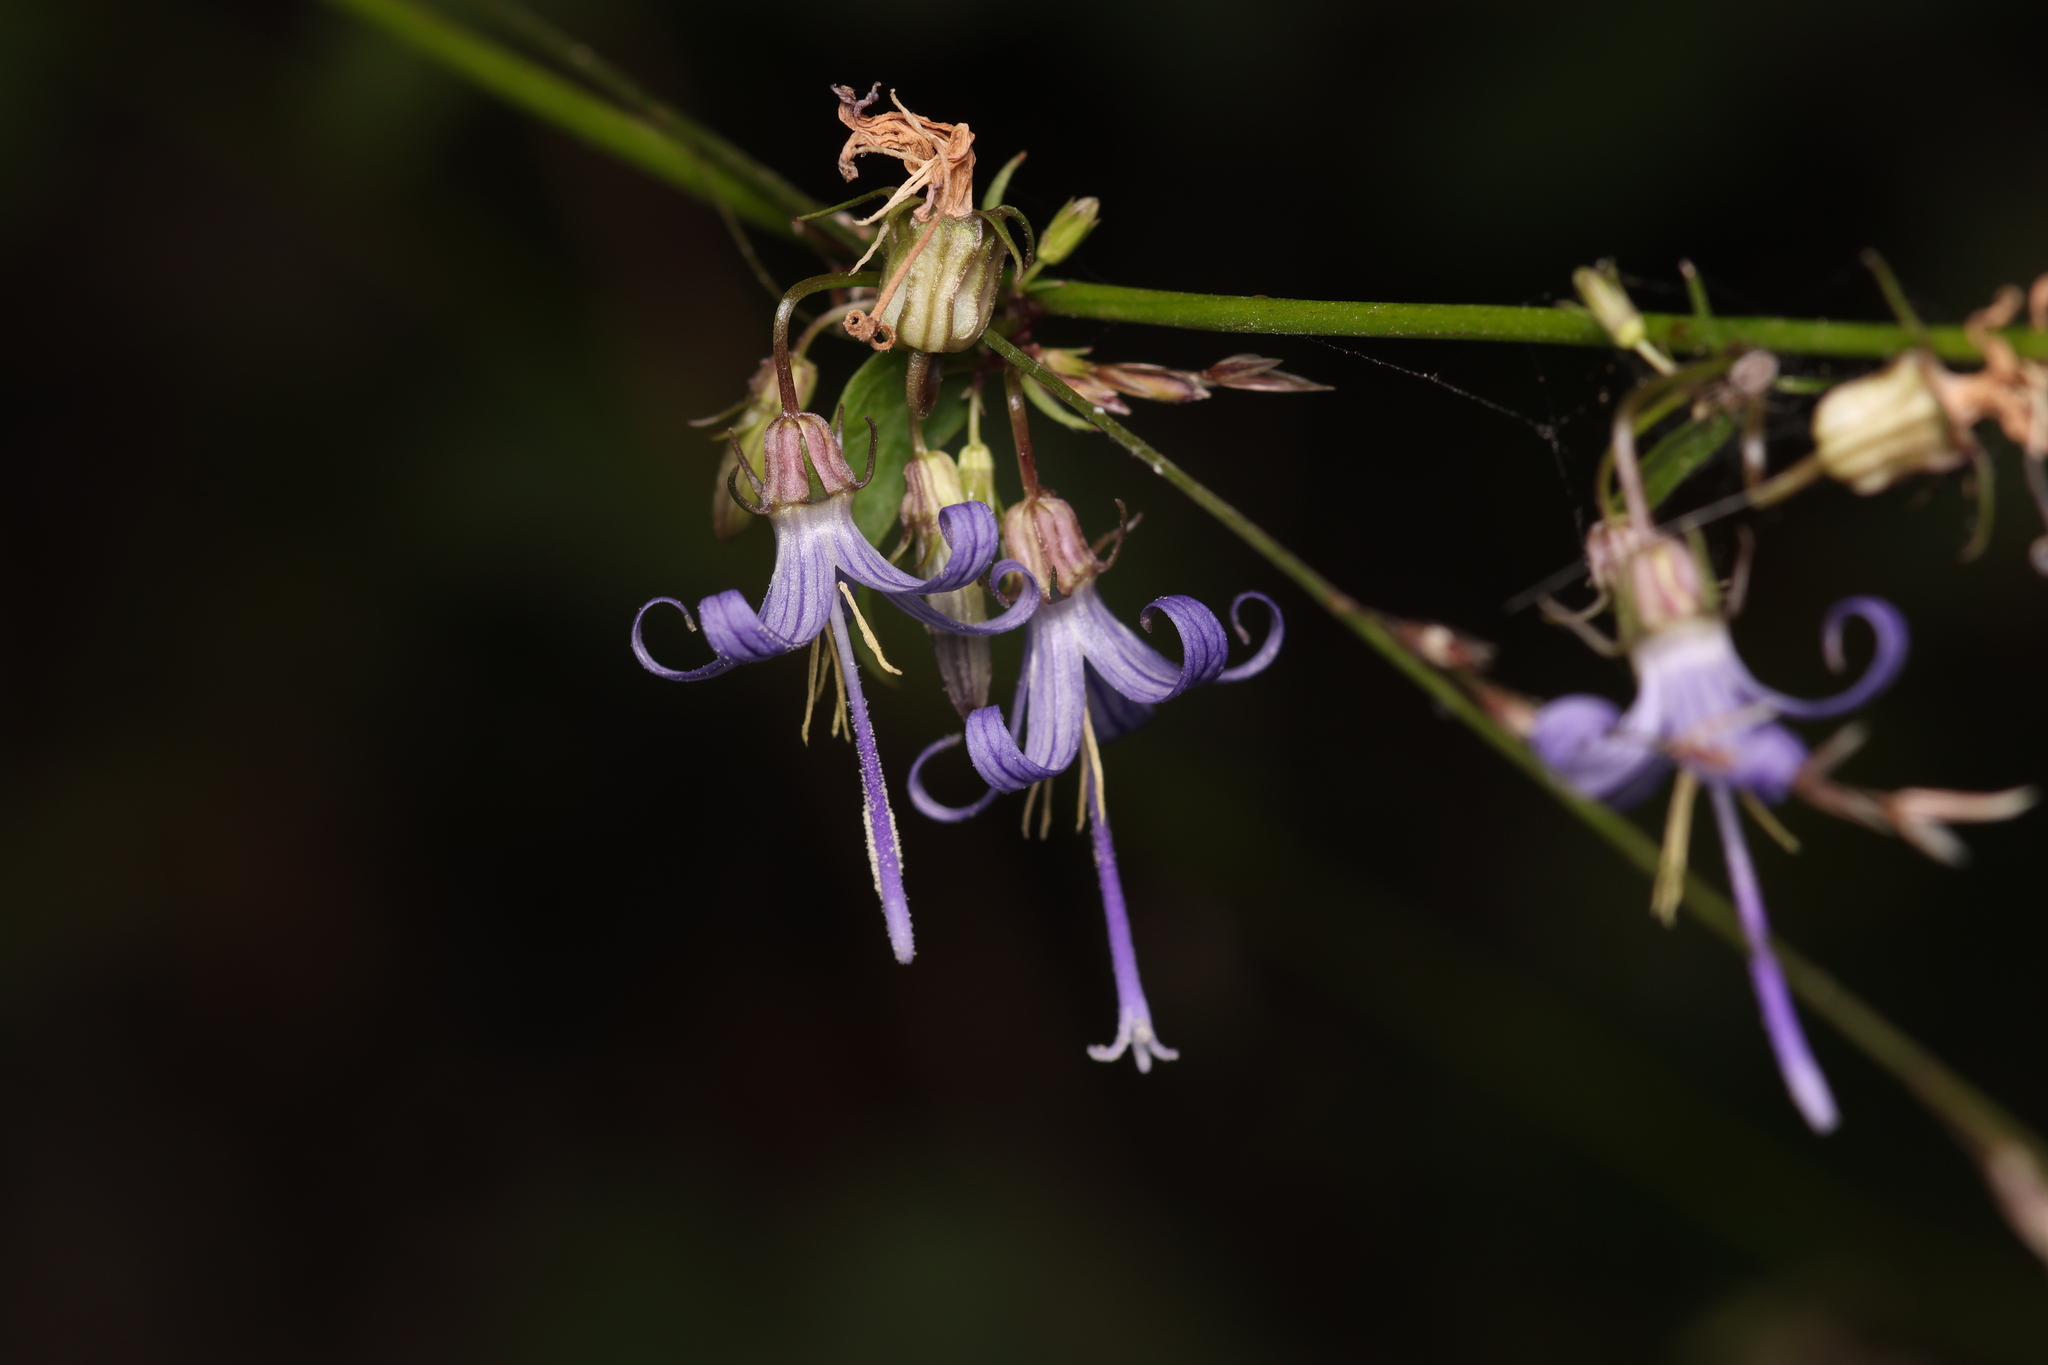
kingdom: Plantae
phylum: Tracheophyta
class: Magnoliopsida
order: Asterales
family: Campanulaceae
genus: Smithiastrum
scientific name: Smithiastrum prenanthoides
